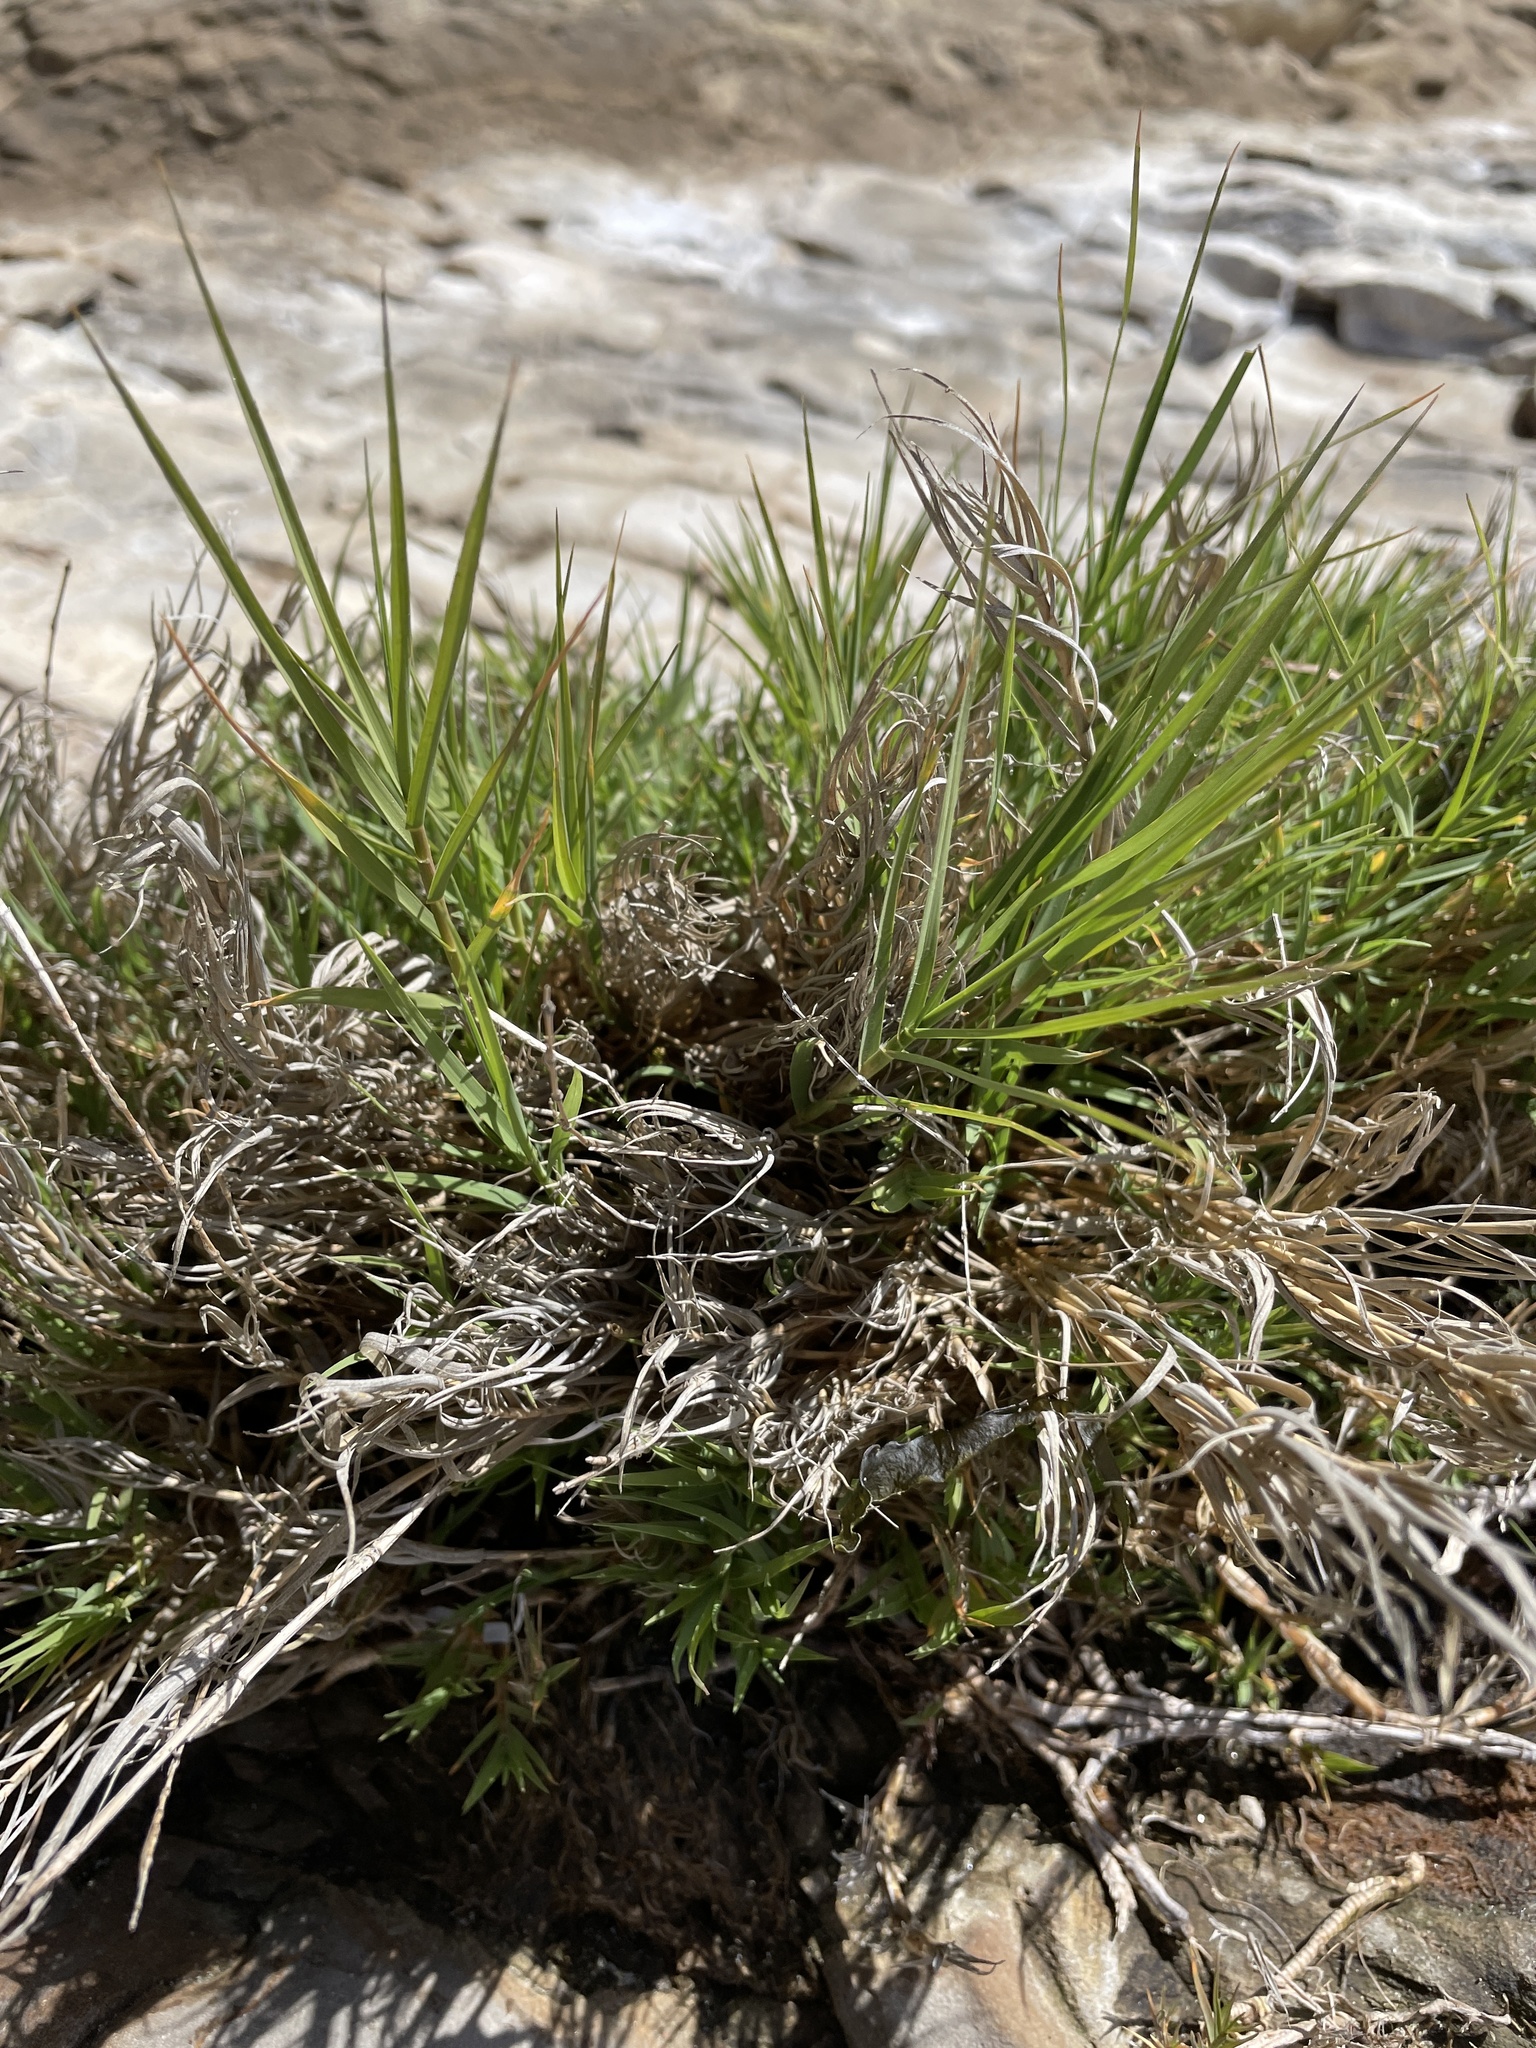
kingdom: Plantae
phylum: Tracheophyta
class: Liliopsida
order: Poales
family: Poaceae
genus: Distichlis
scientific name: Distichlis spicata
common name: Saltgrass
